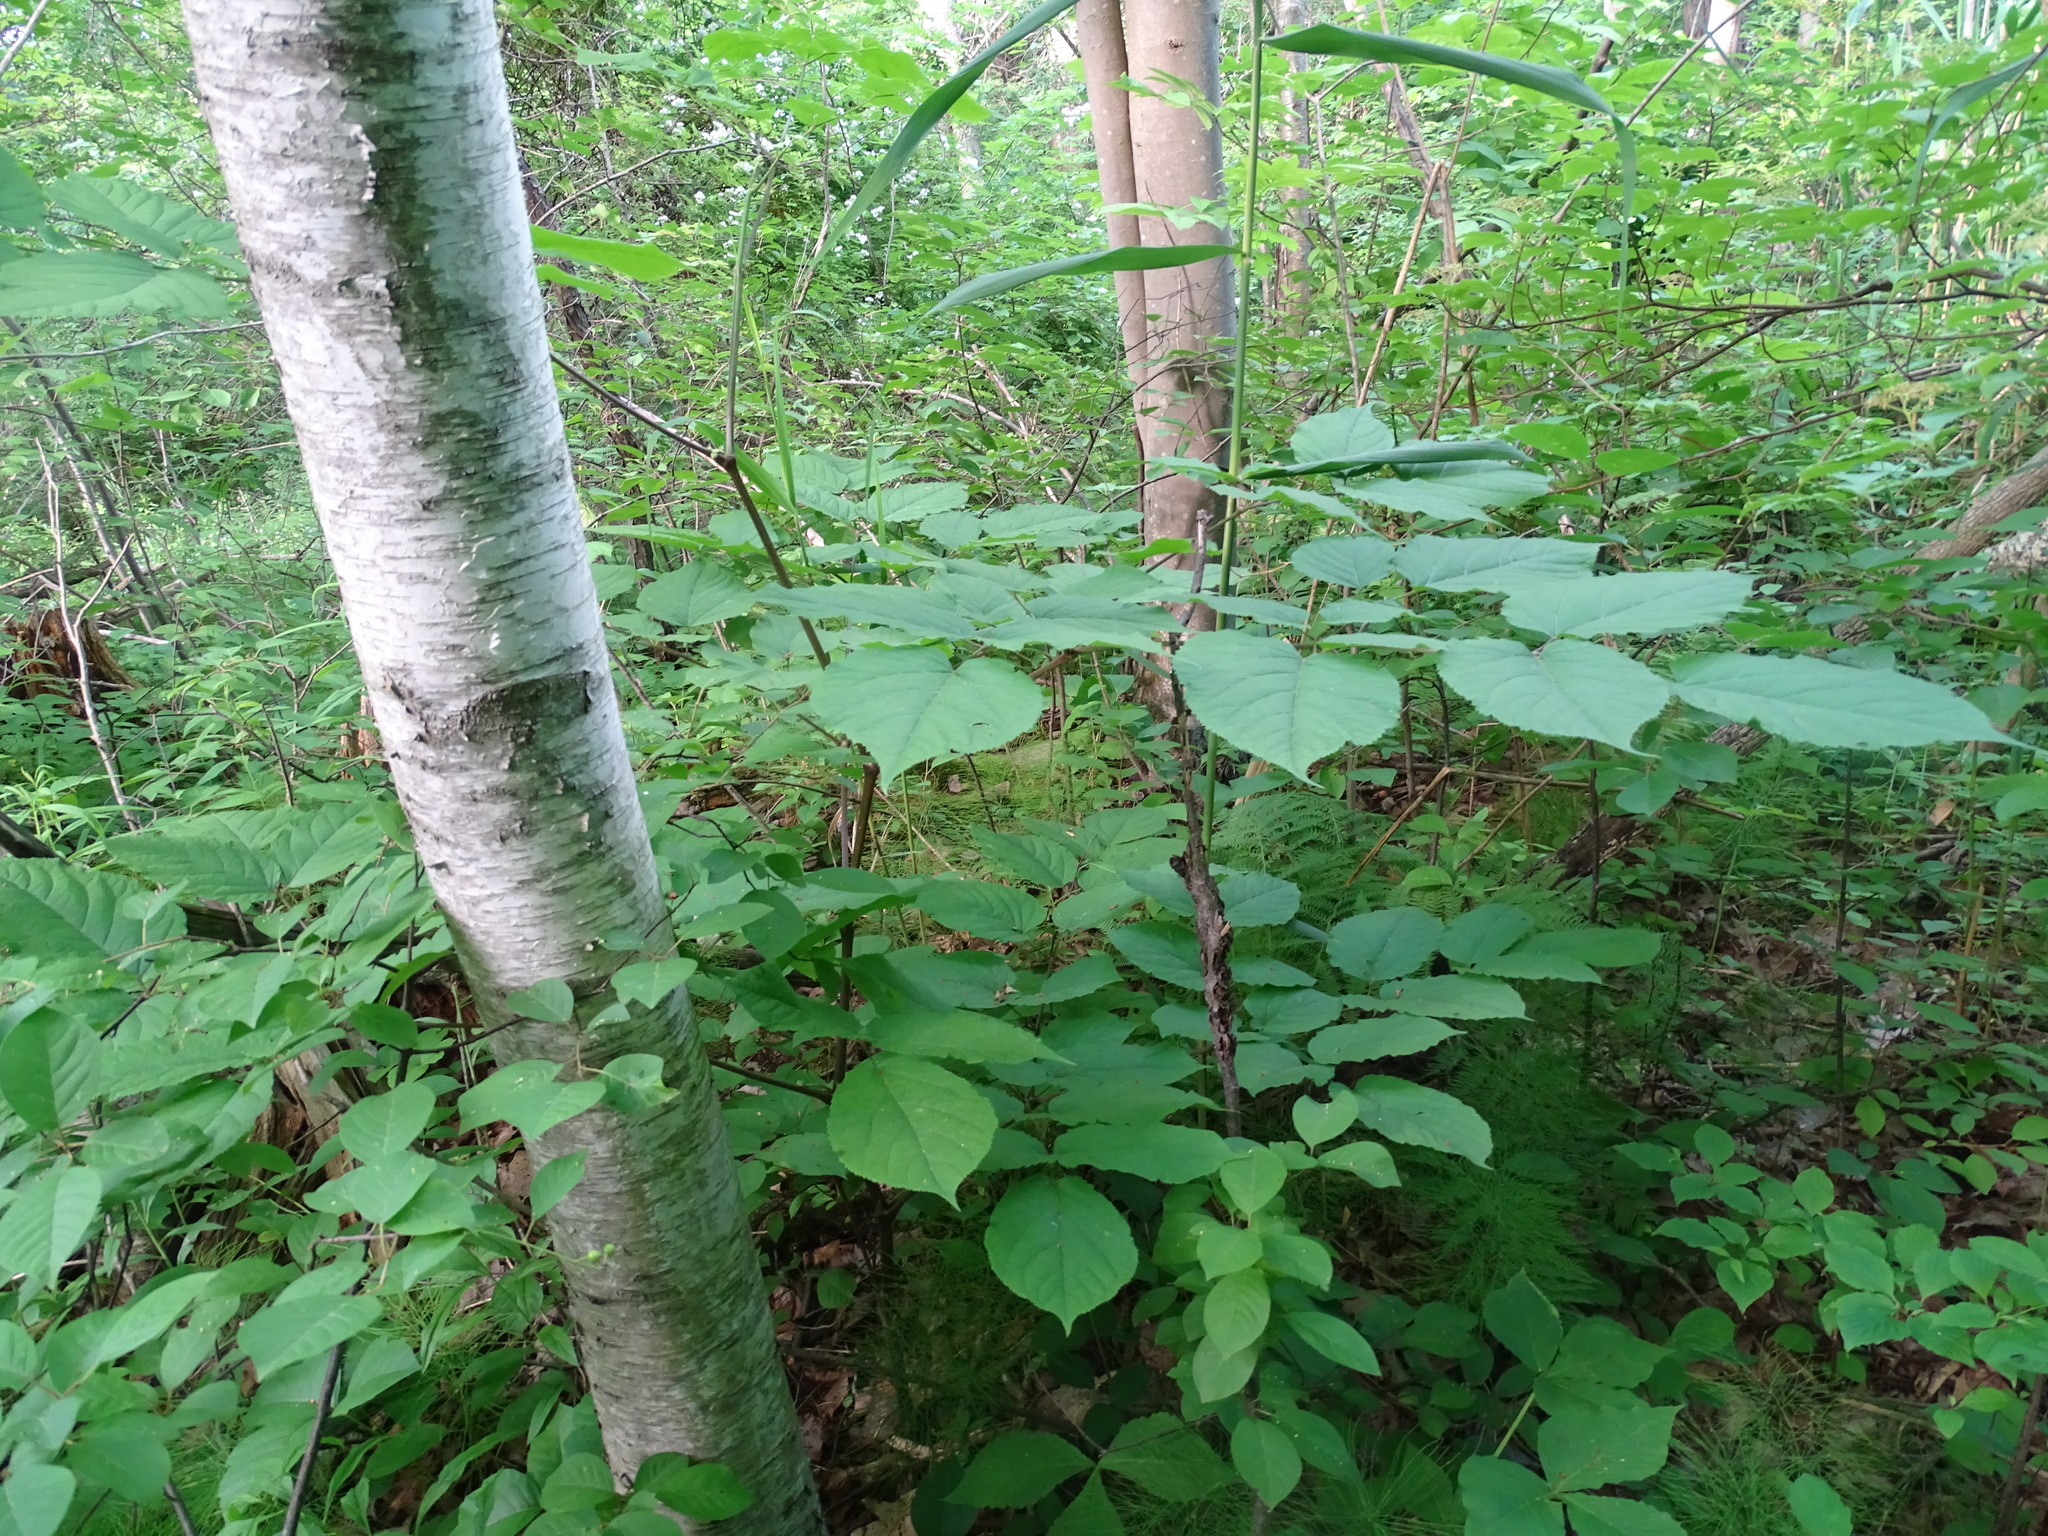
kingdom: Plantae
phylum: Tracheophyta
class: Magnoliopsida
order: Apiales
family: Araliaceae
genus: Aralia
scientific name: Aralia racemosa
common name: American-spikenard
